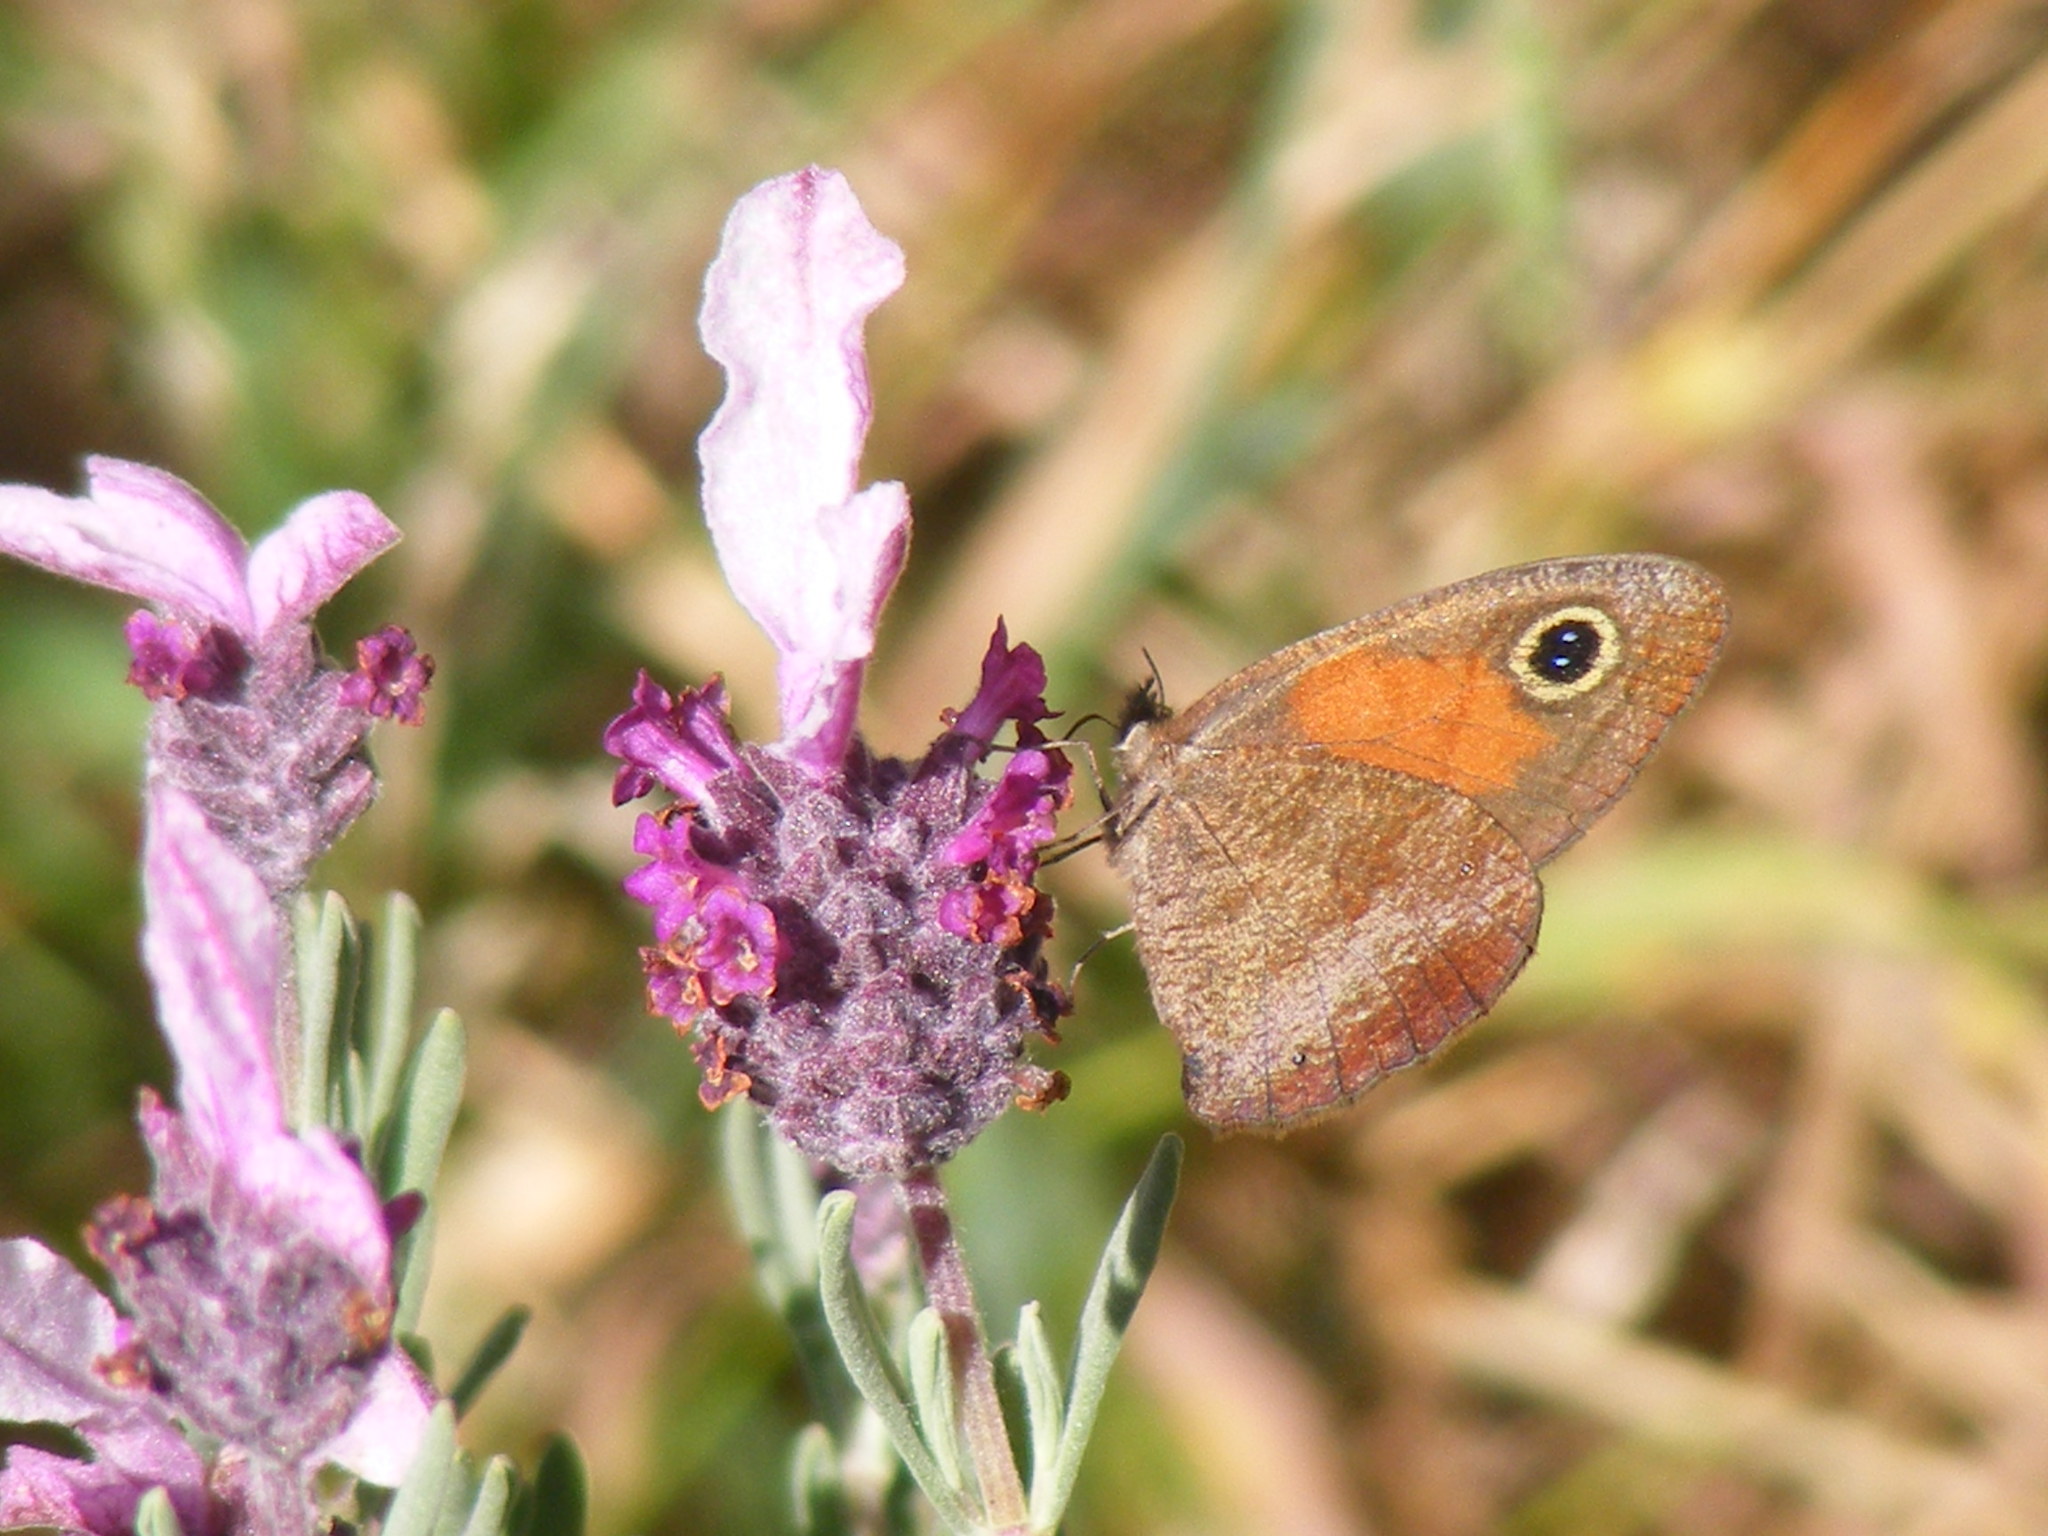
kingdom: Animalia
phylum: Arthropoda
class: Insecta
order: Lepidoptera
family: Nymphalidae
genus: Cassionympha
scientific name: Cassionympha cassius
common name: Rainforest brown
